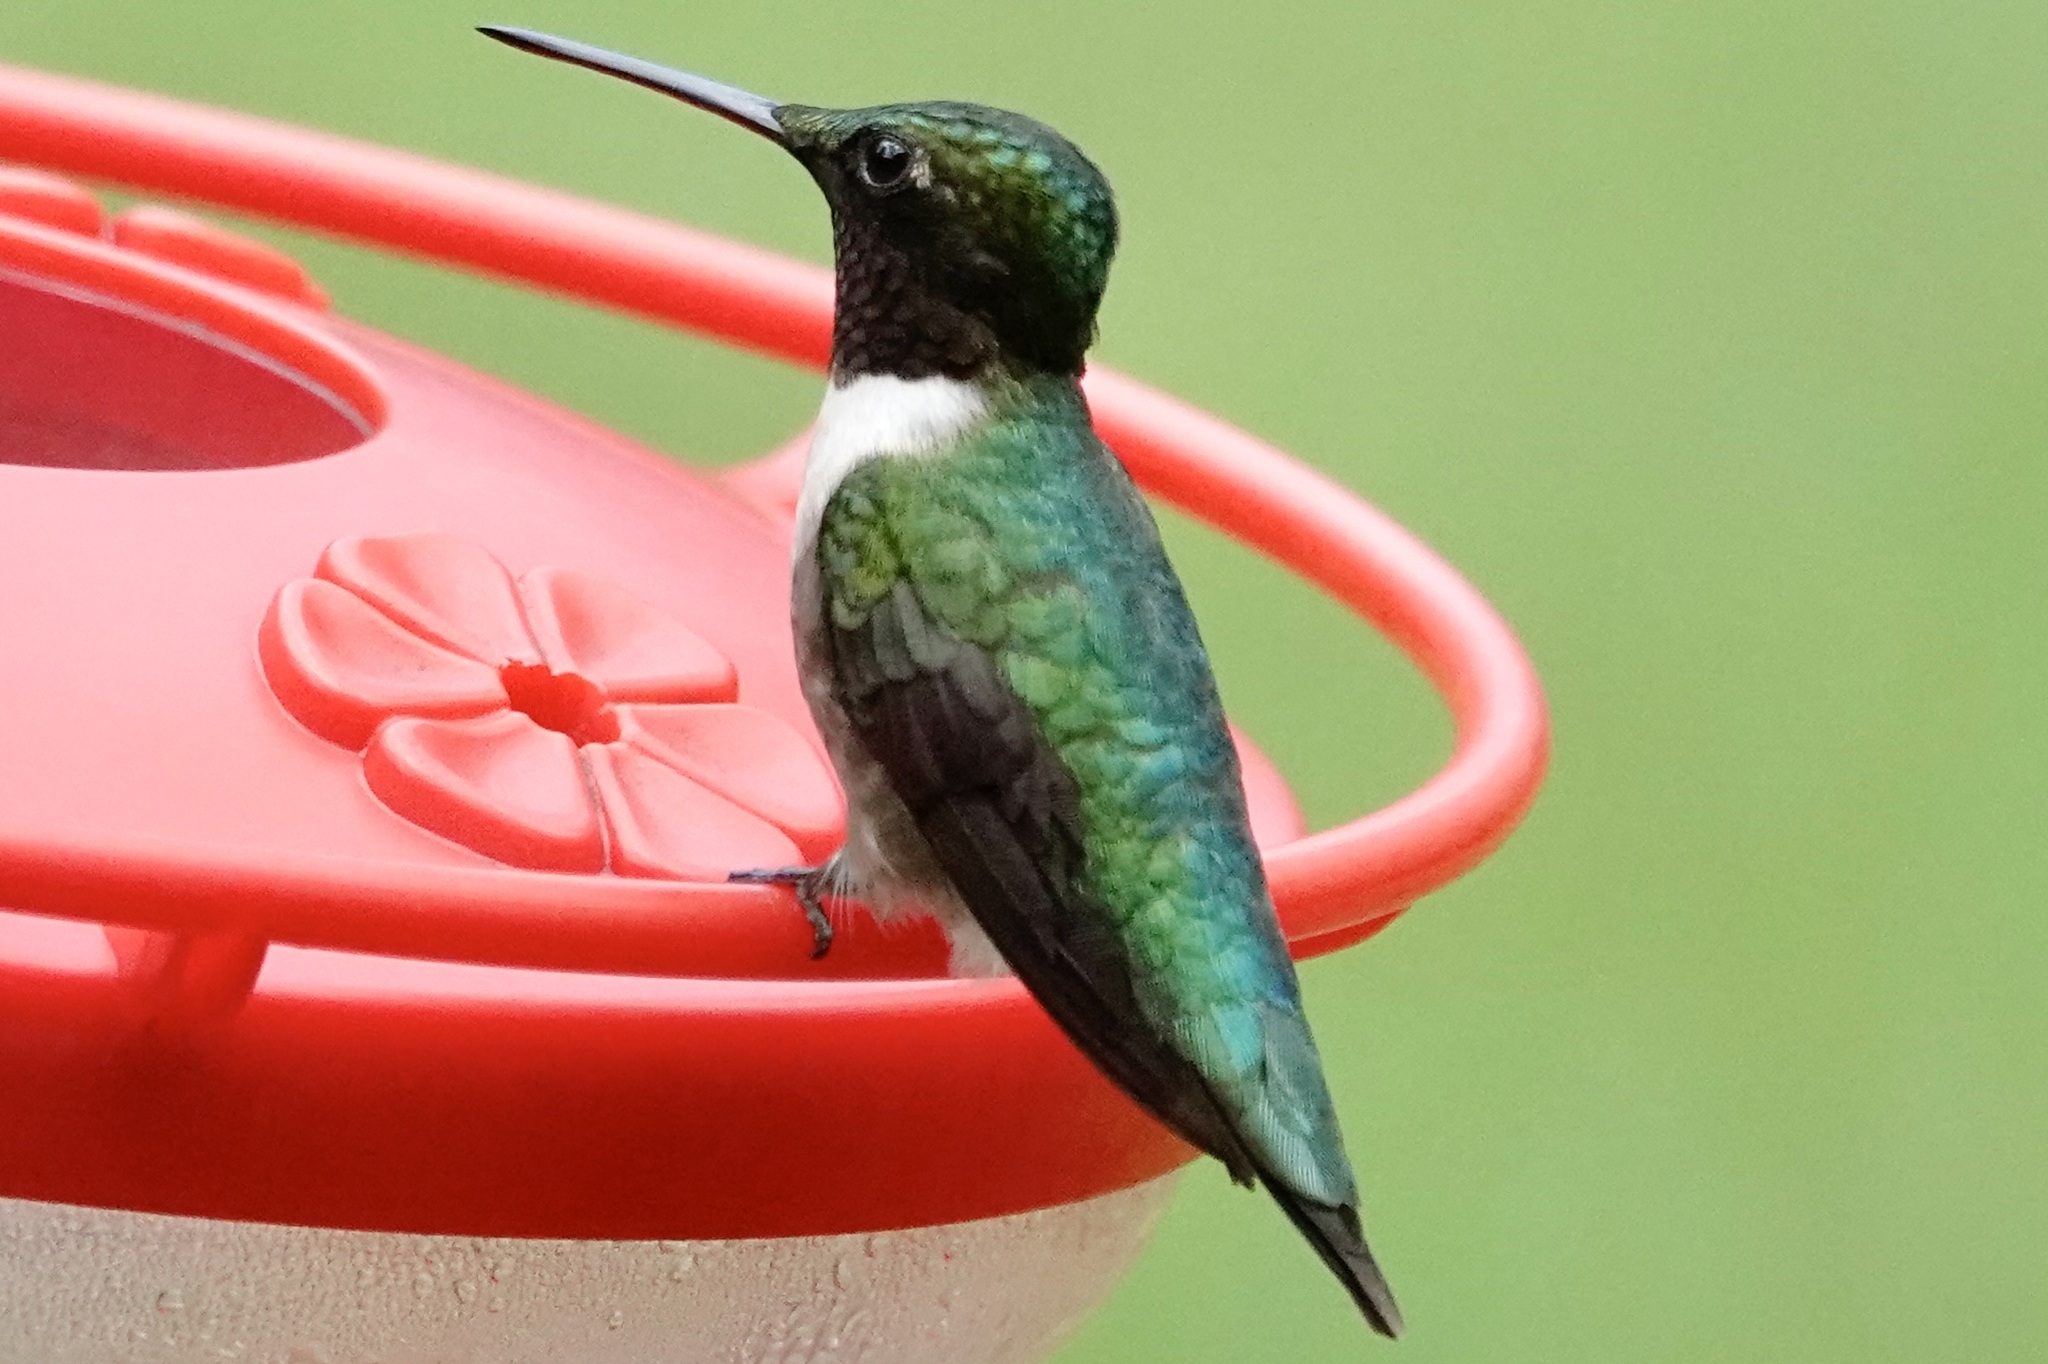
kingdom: Animalia
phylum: Chordata
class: Aves
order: Apodiformes
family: Trochilidae
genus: Archilochus
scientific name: Archilochus colubris
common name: Ruby-throated hummingbird
